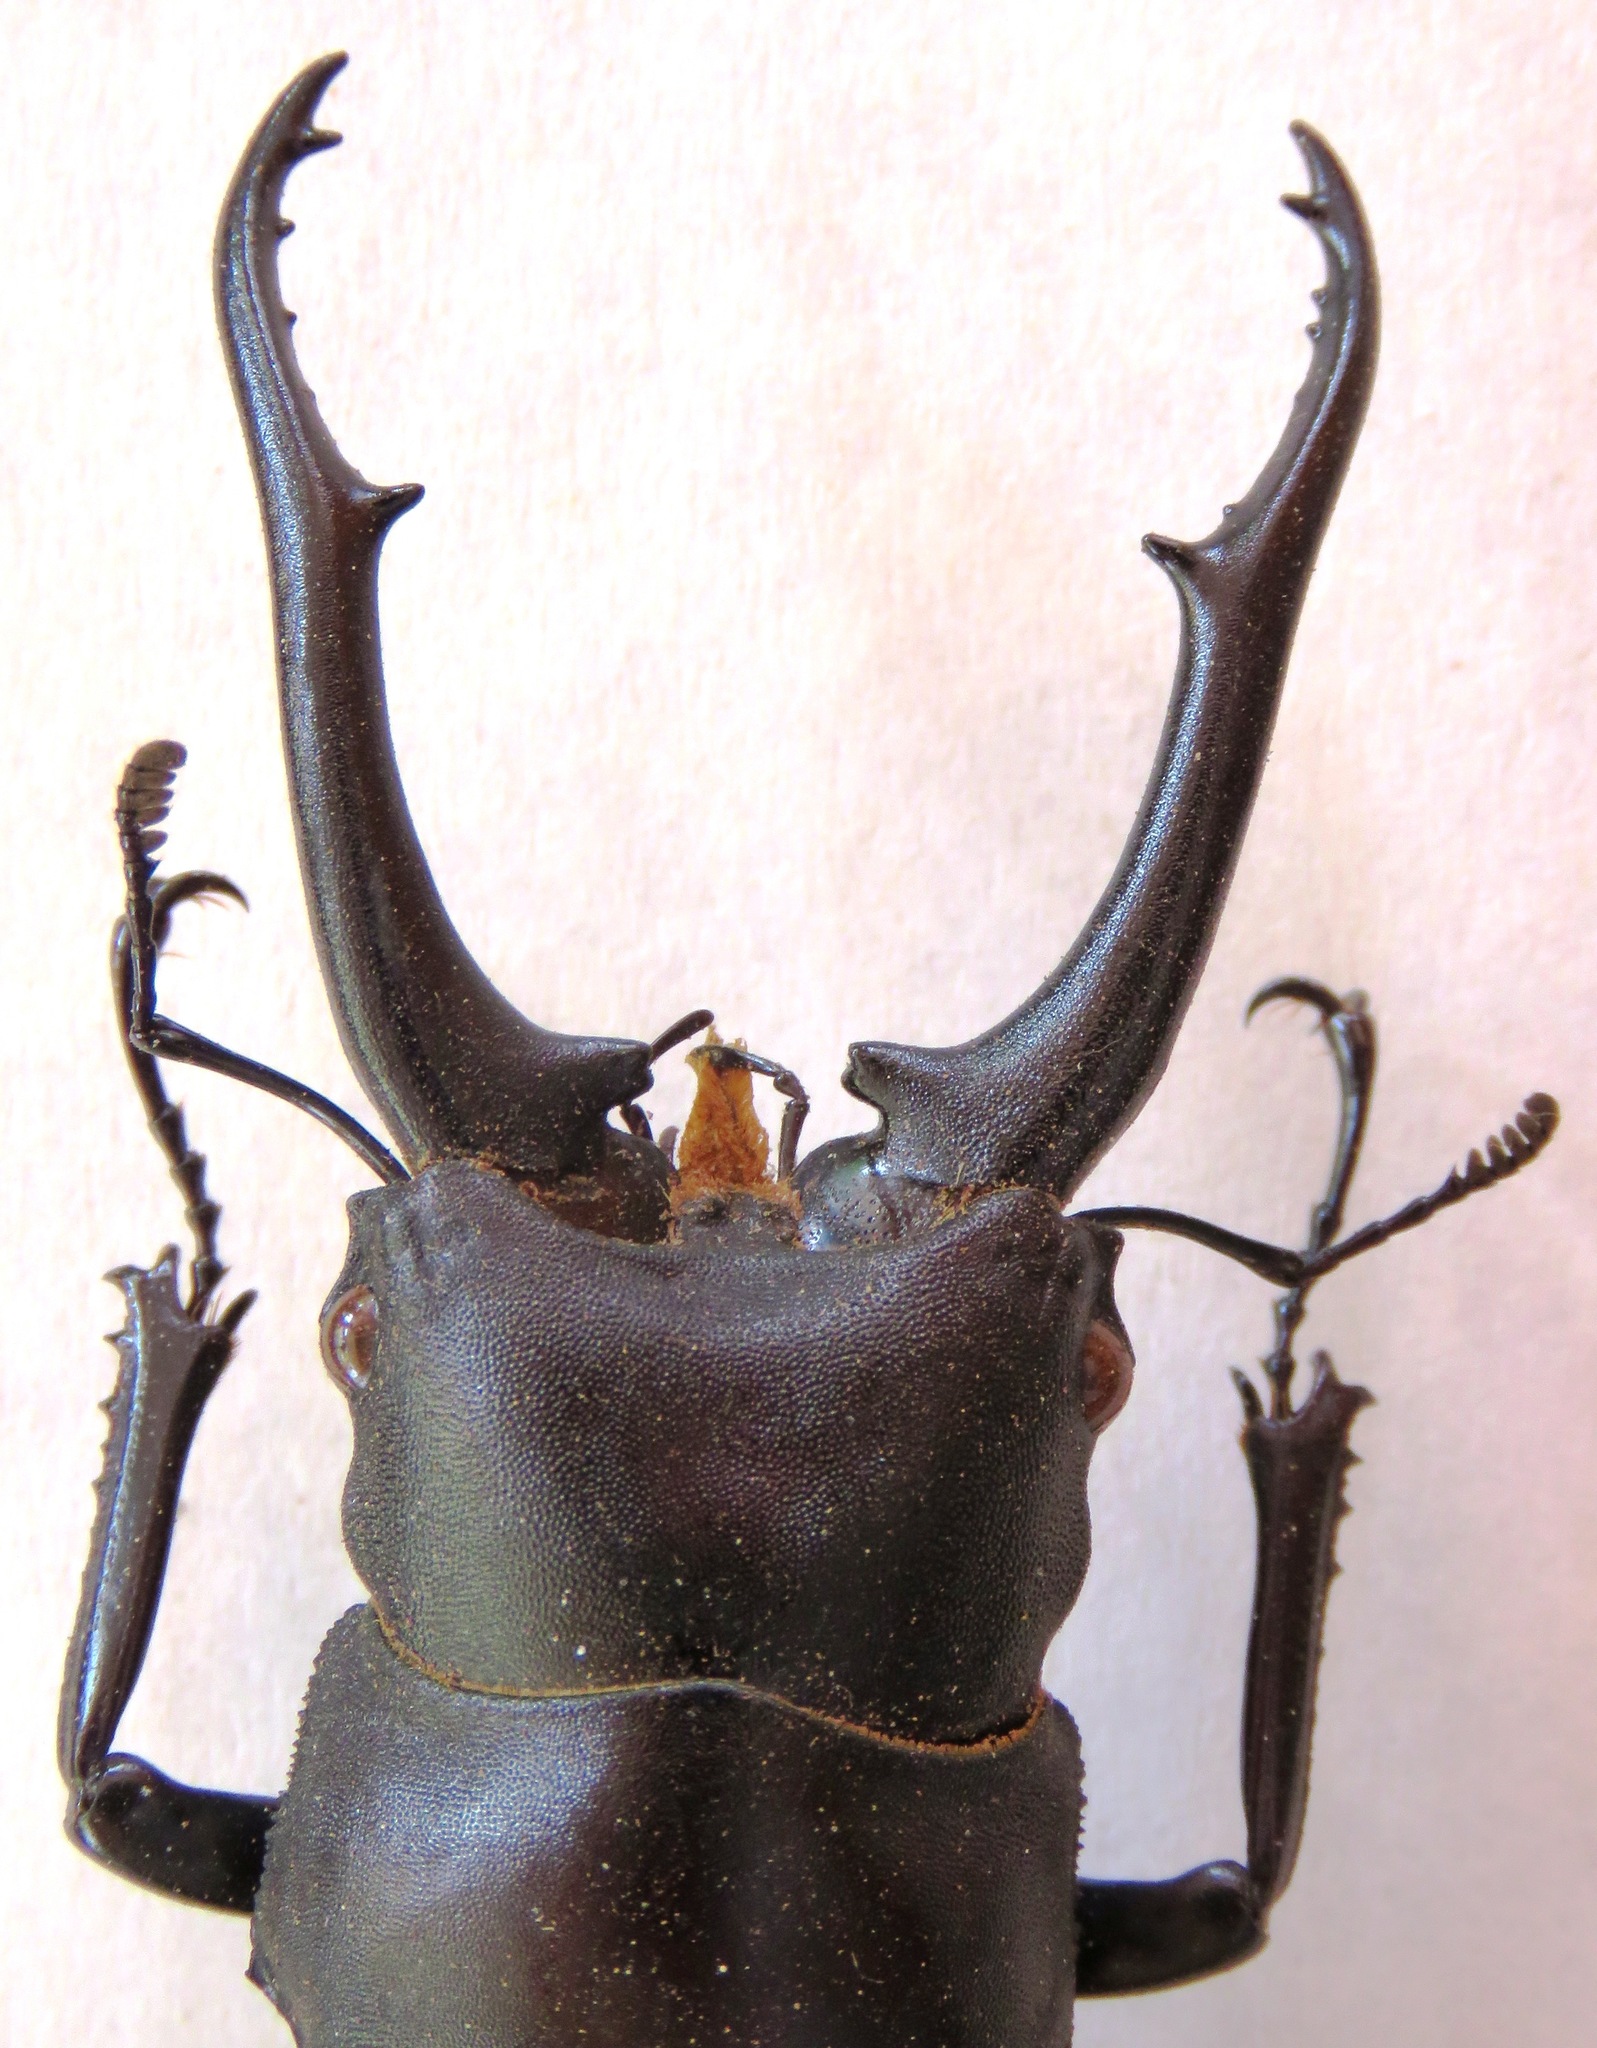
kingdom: Animalia
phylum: Arthropoda
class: Insecta
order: Coleoptera
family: Lucanidae
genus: Hexarthrius
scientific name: Hexarthrius vitalisi
